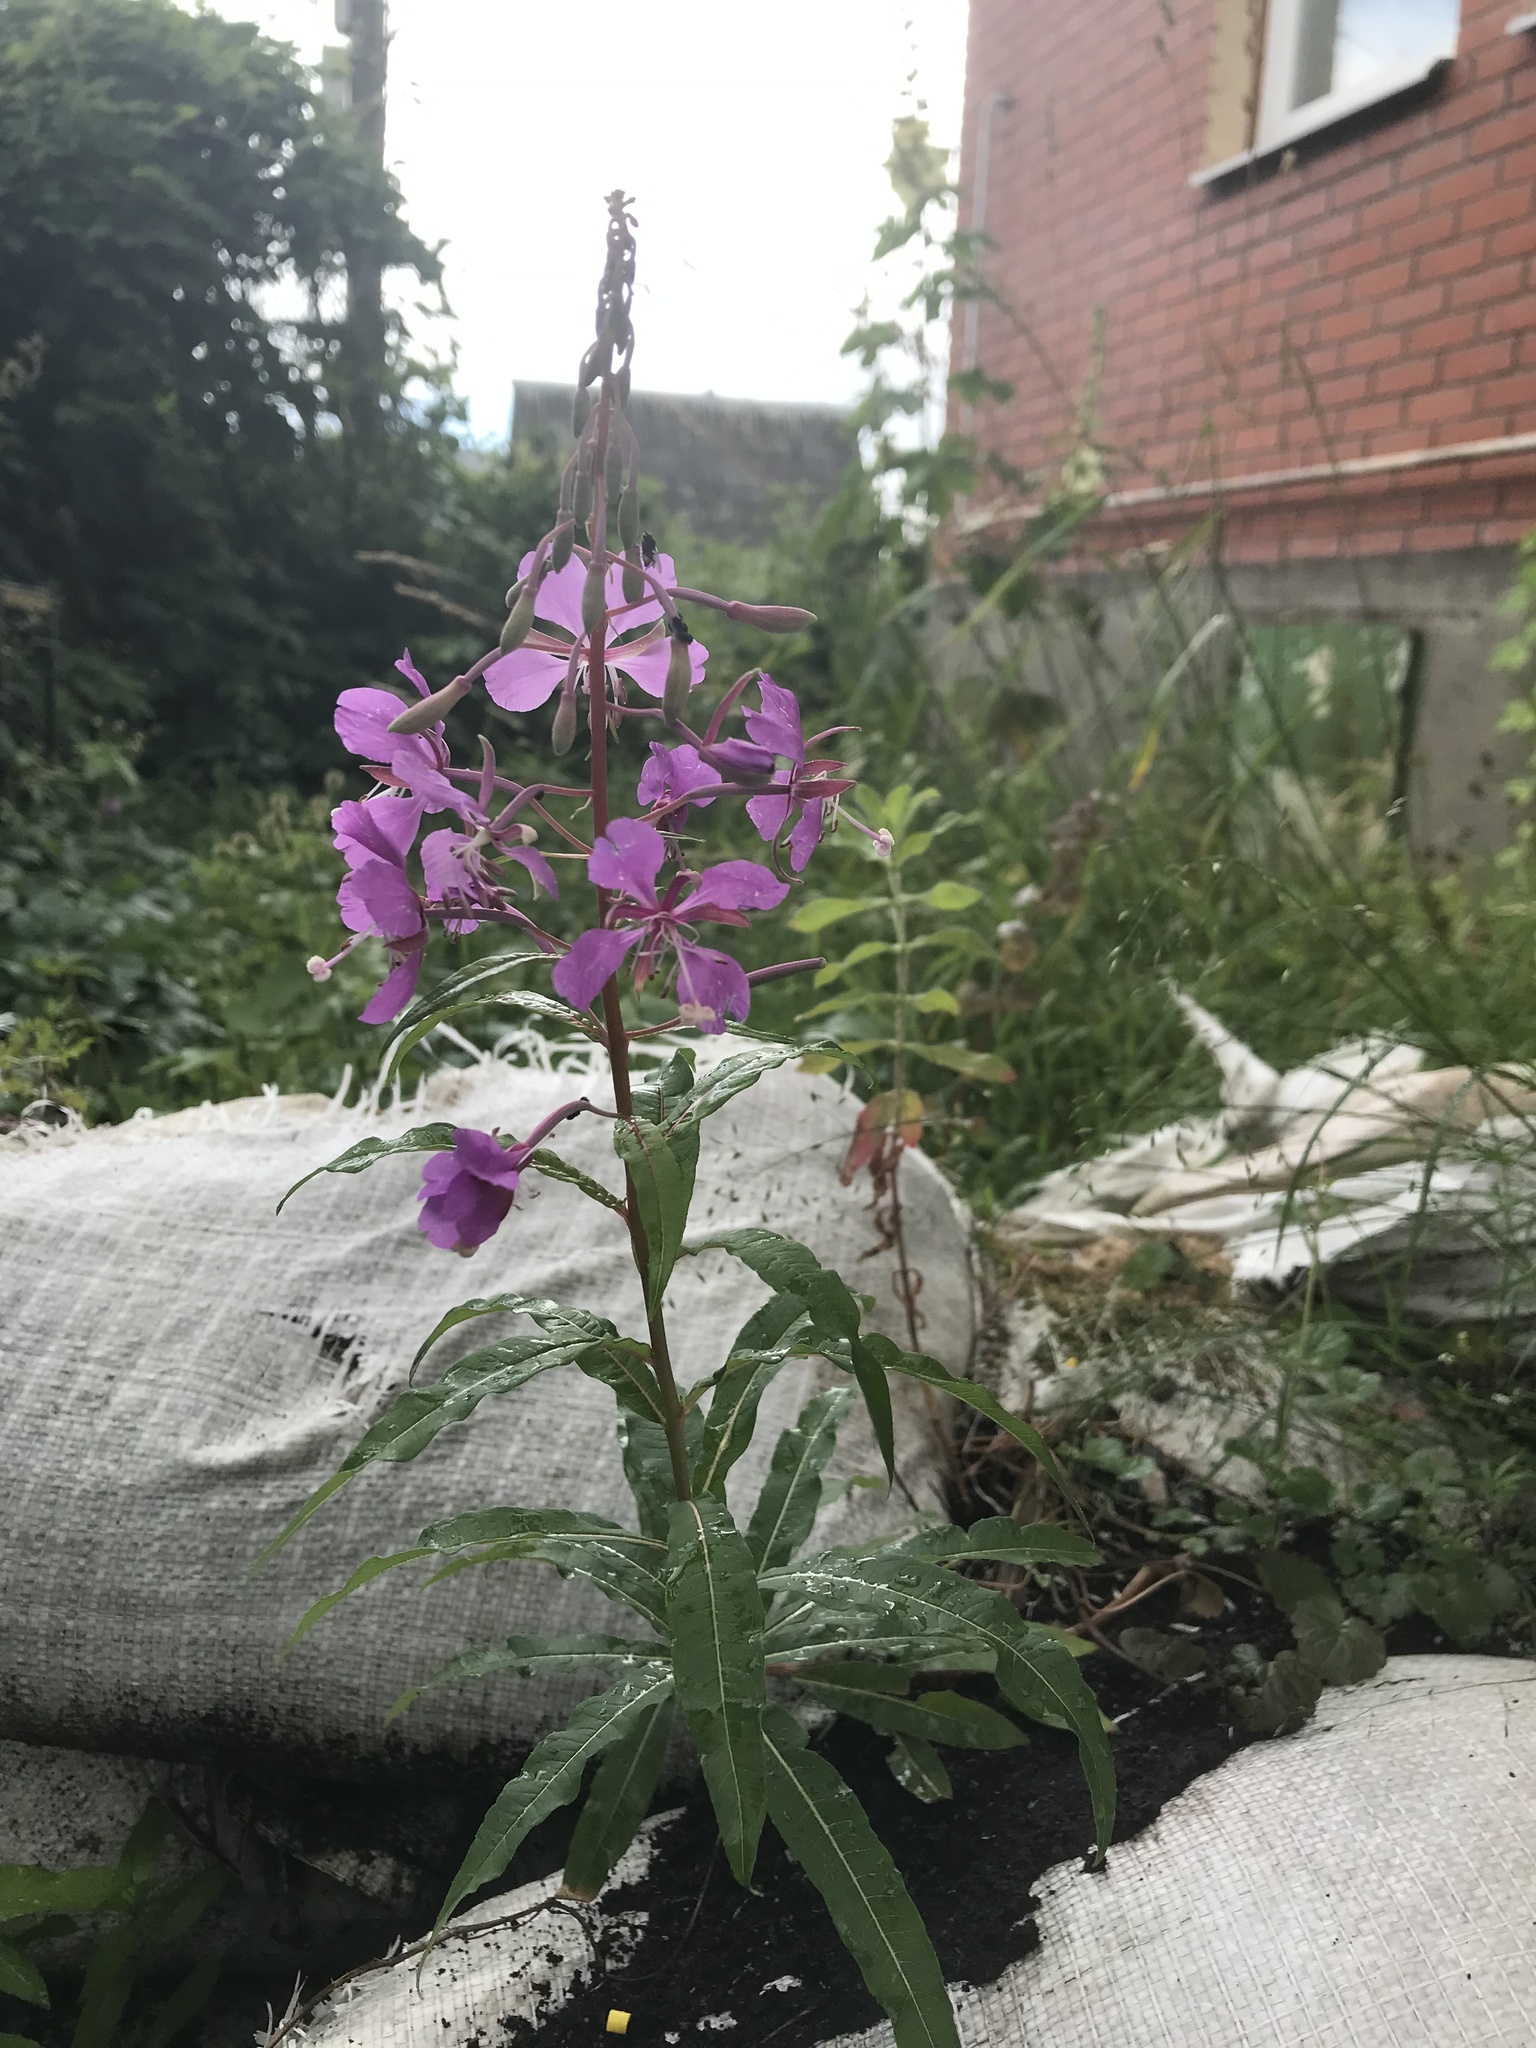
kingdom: Plantae
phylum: Tracheophyta
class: Magnoliopsida
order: Myrtales
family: Onagraceae
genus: Chamaenerion
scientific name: Chamaenerion angustifolium
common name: Fireweed
